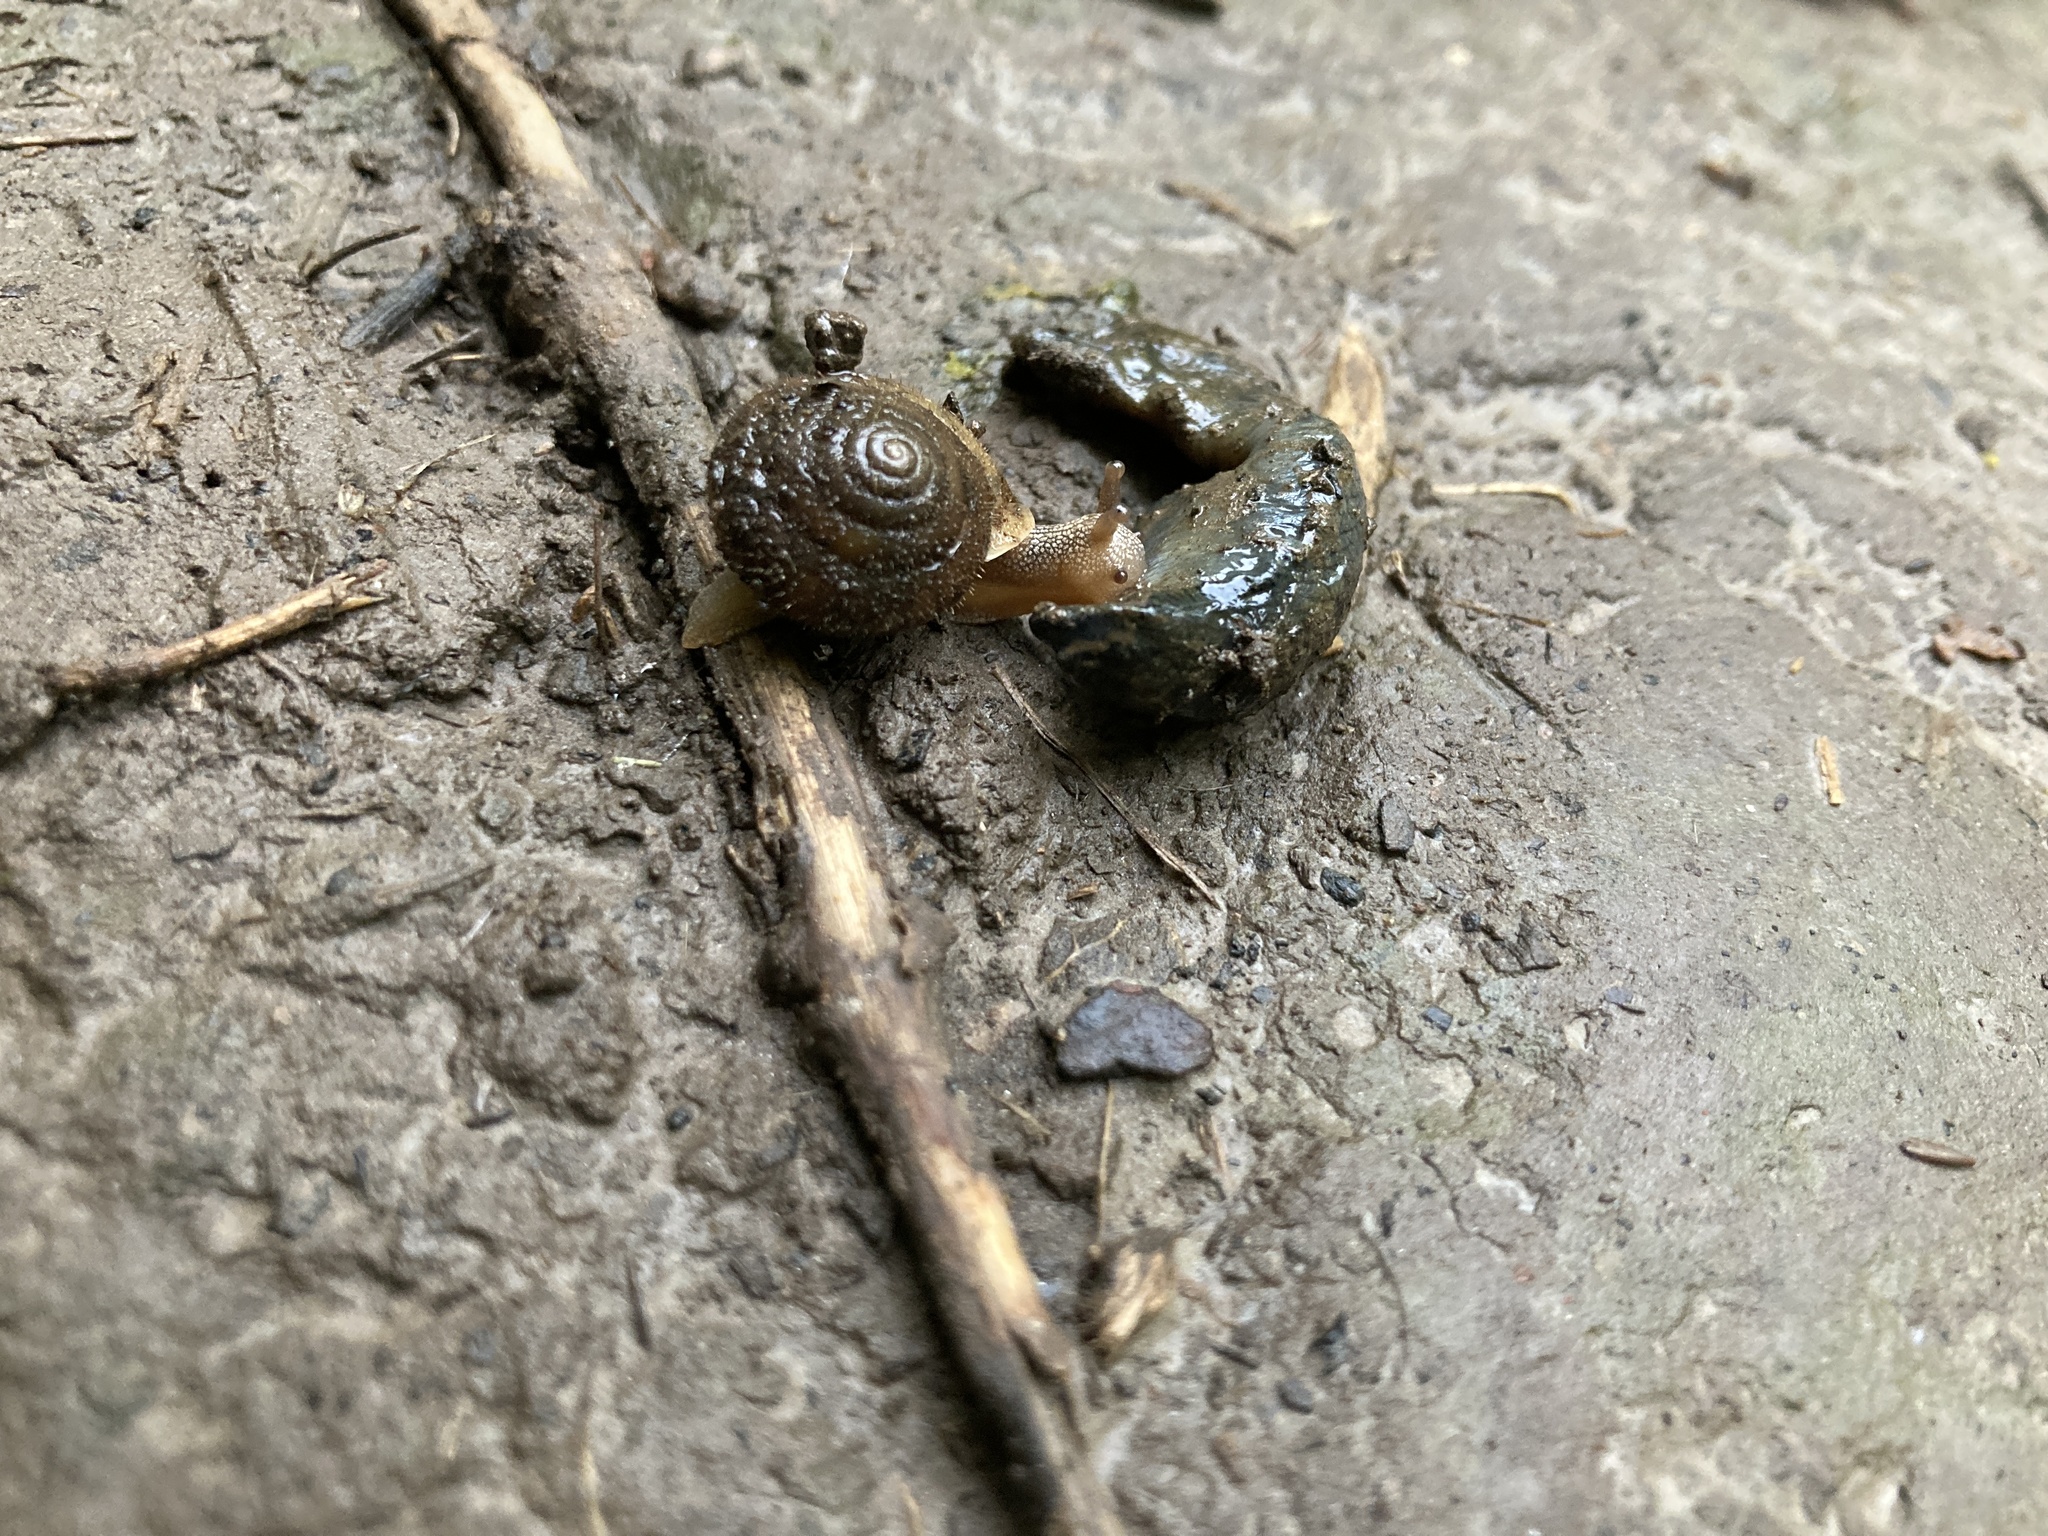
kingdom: Animalia
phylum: Mollusca
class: Gastropoda
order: Stylommatophora
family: Polygyridae
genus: Vespericola
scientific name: Vespericola columbianus
